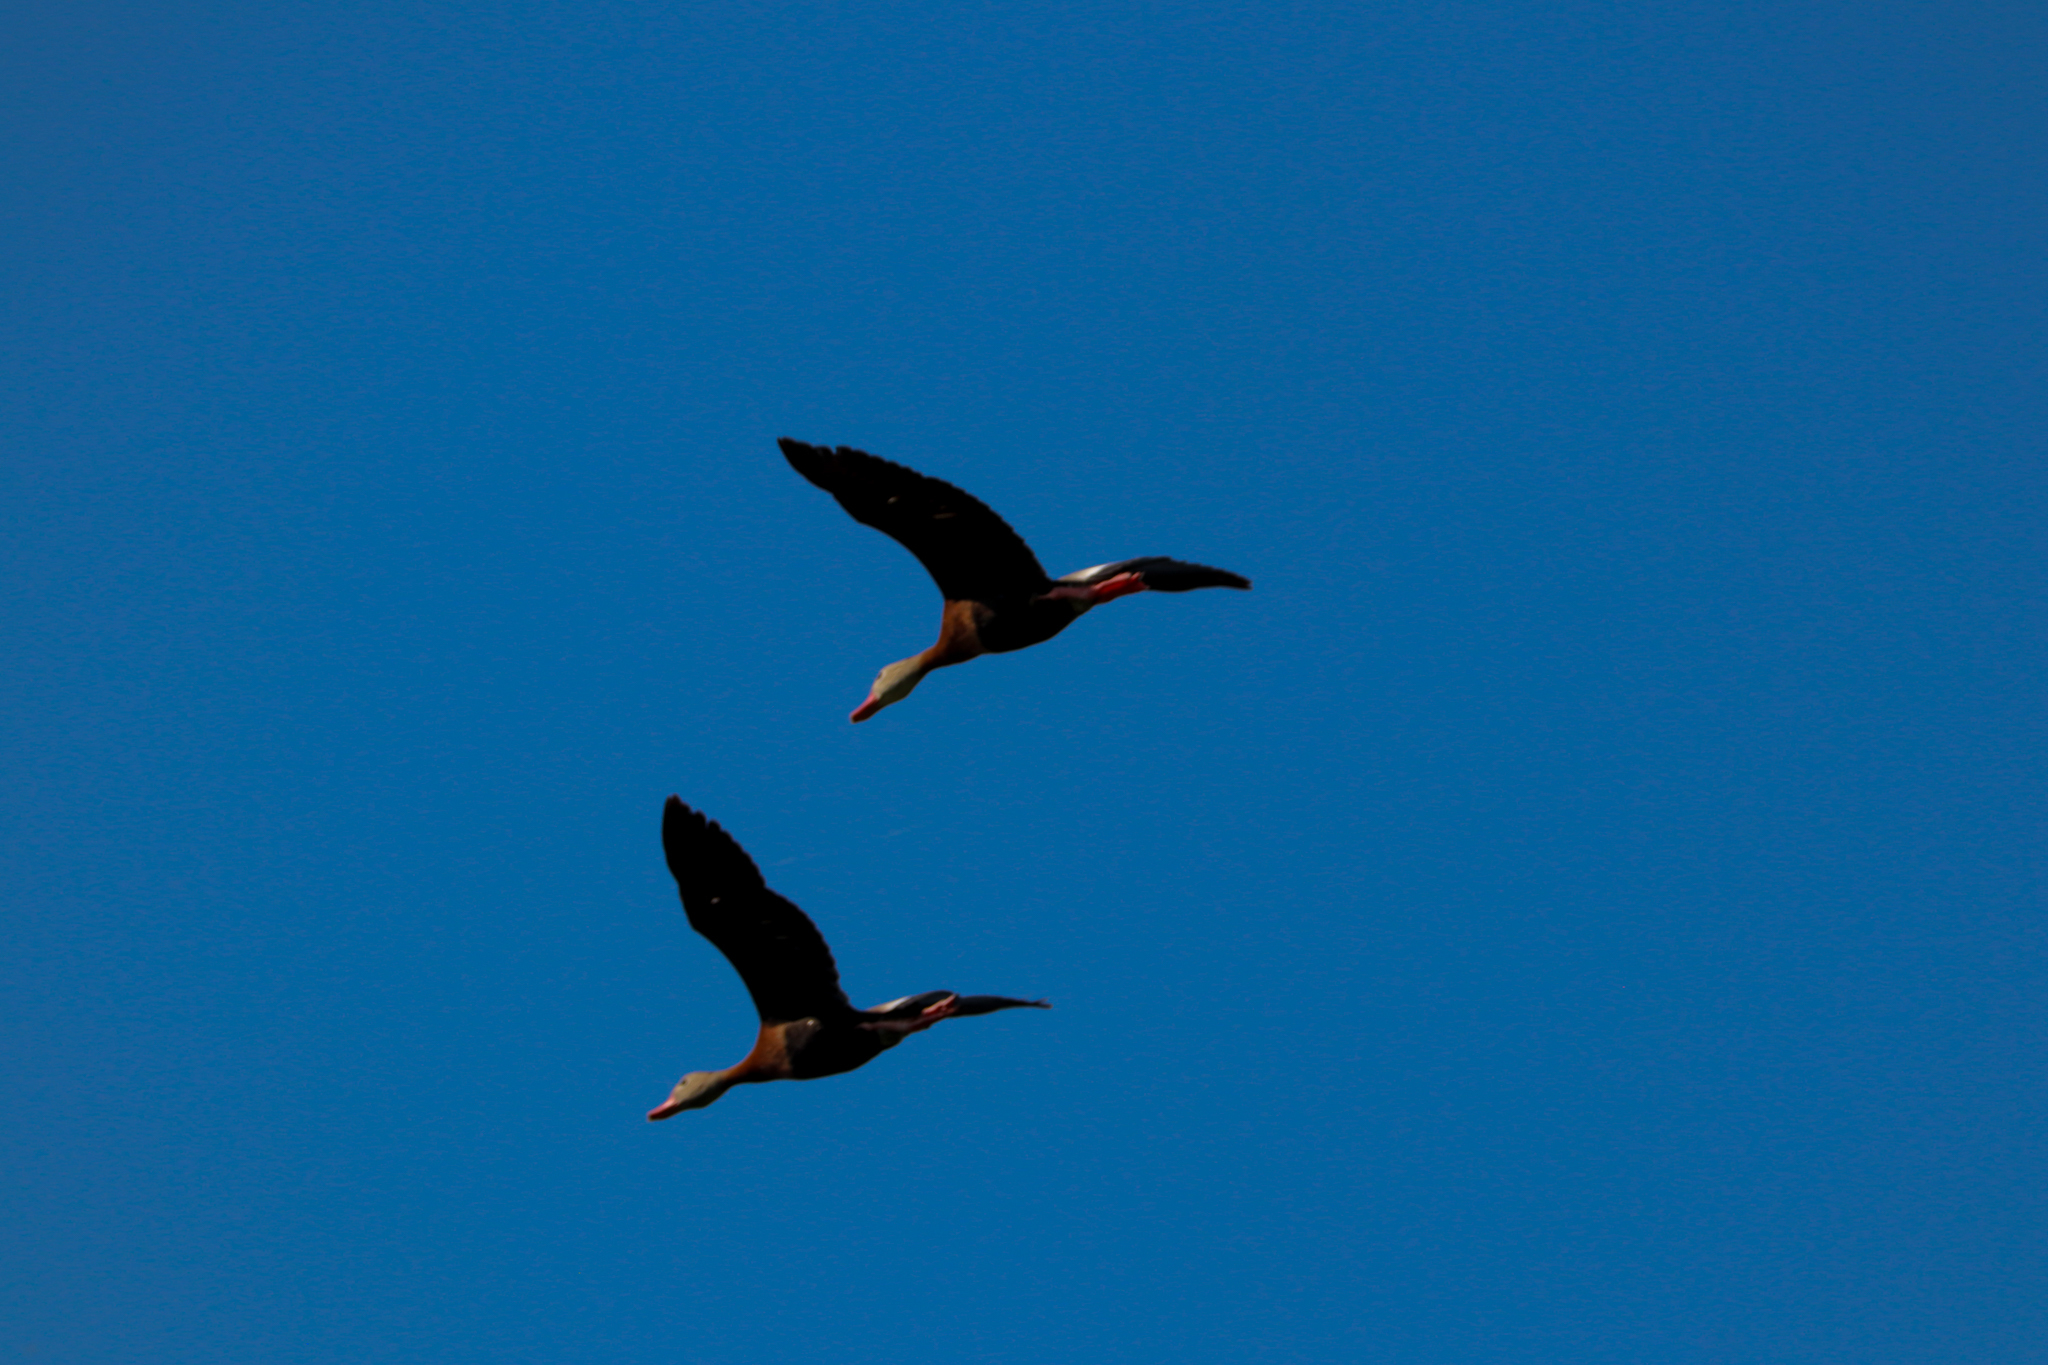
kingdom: Animalia
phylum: Chordata
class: Aves
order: Anseriformes
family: Anatidae
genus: Dendrocygna
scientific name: Dendrocygna autumnalis
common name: Black-bellied whistling duck
